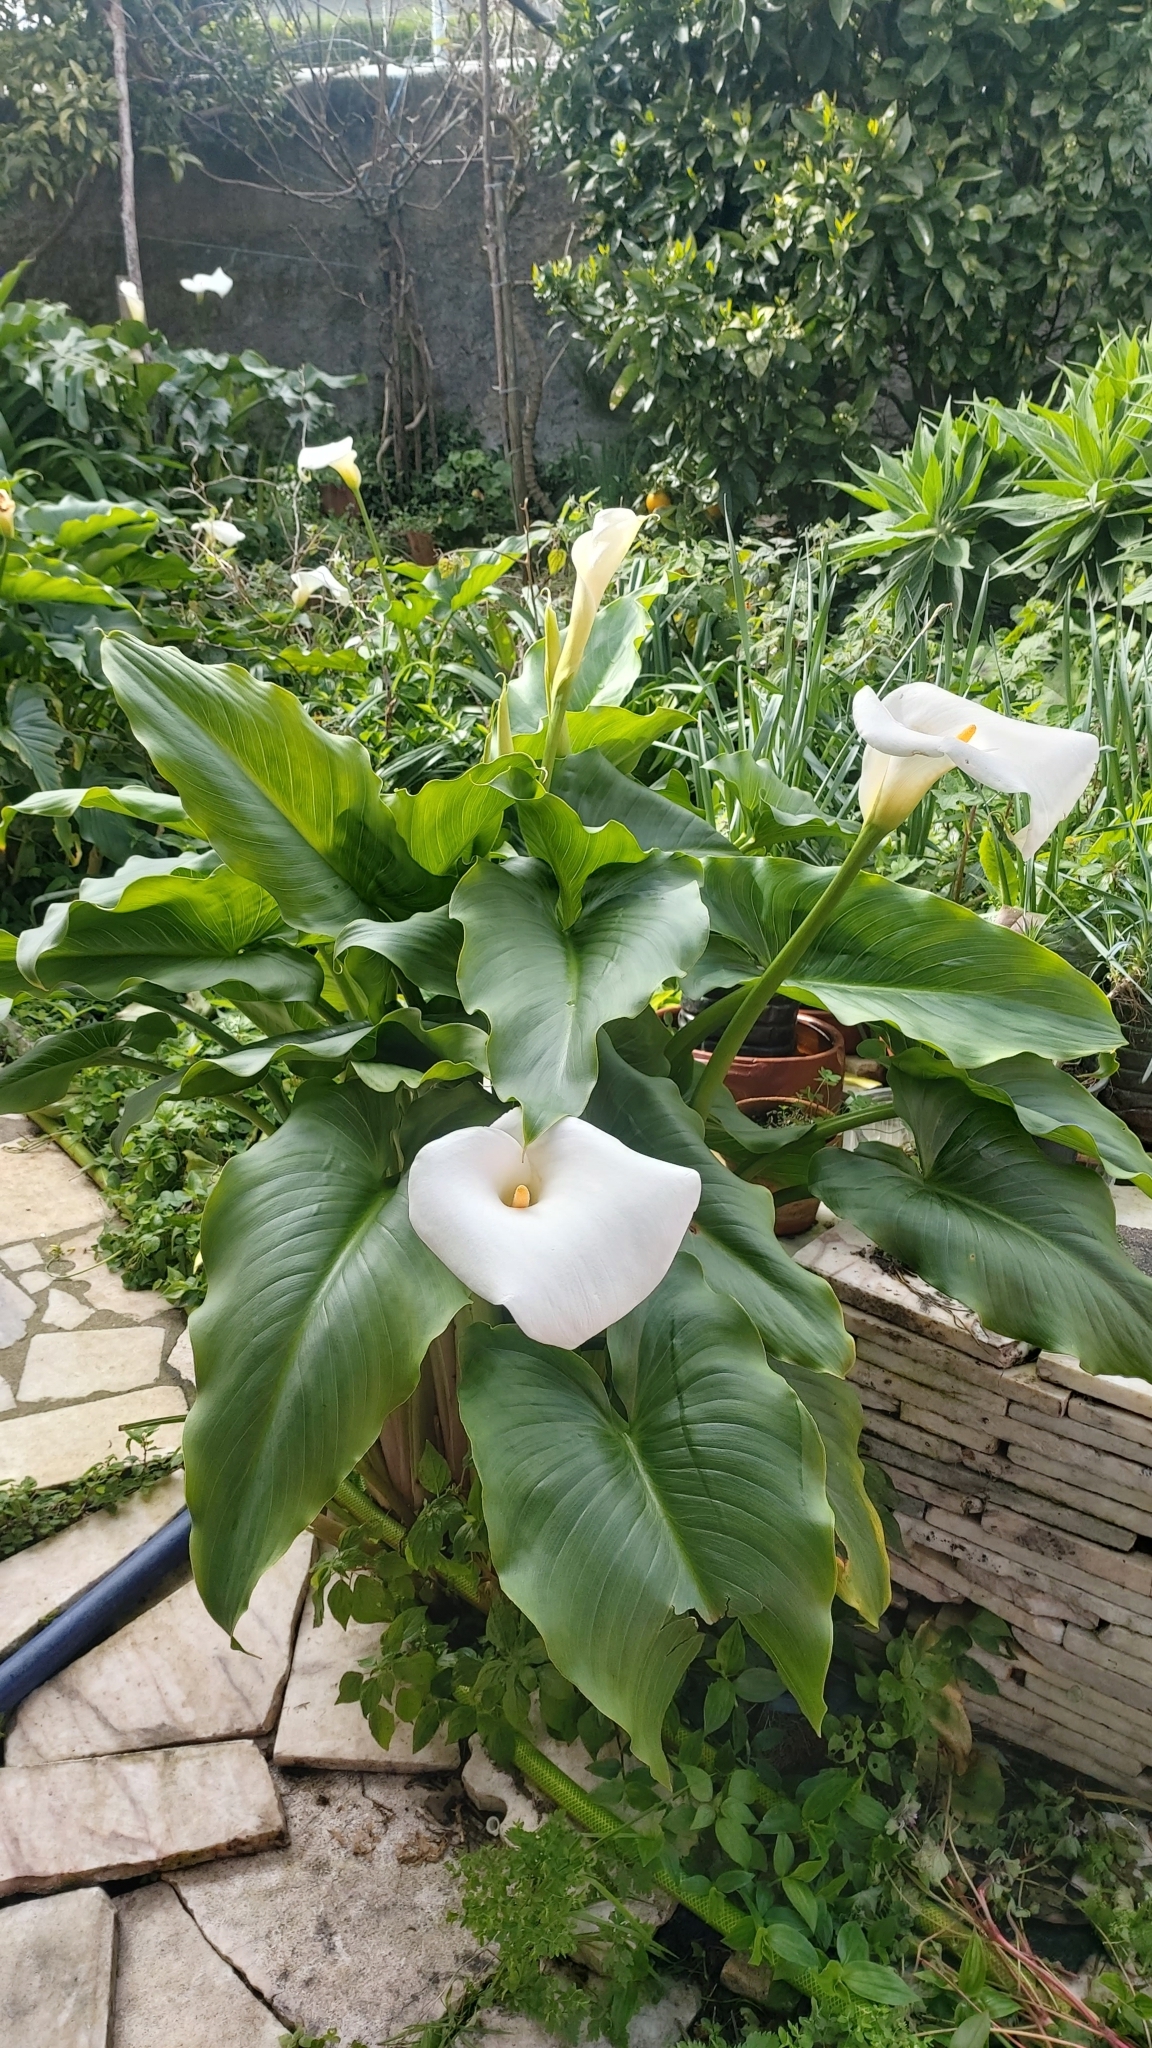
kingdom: Plantae
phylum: Tracheophyta
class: Liliopsida
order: Alismatales
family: Araceae
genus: Zantedeschia
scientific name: Zantedeschia aethiopica
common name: Altar-lily
